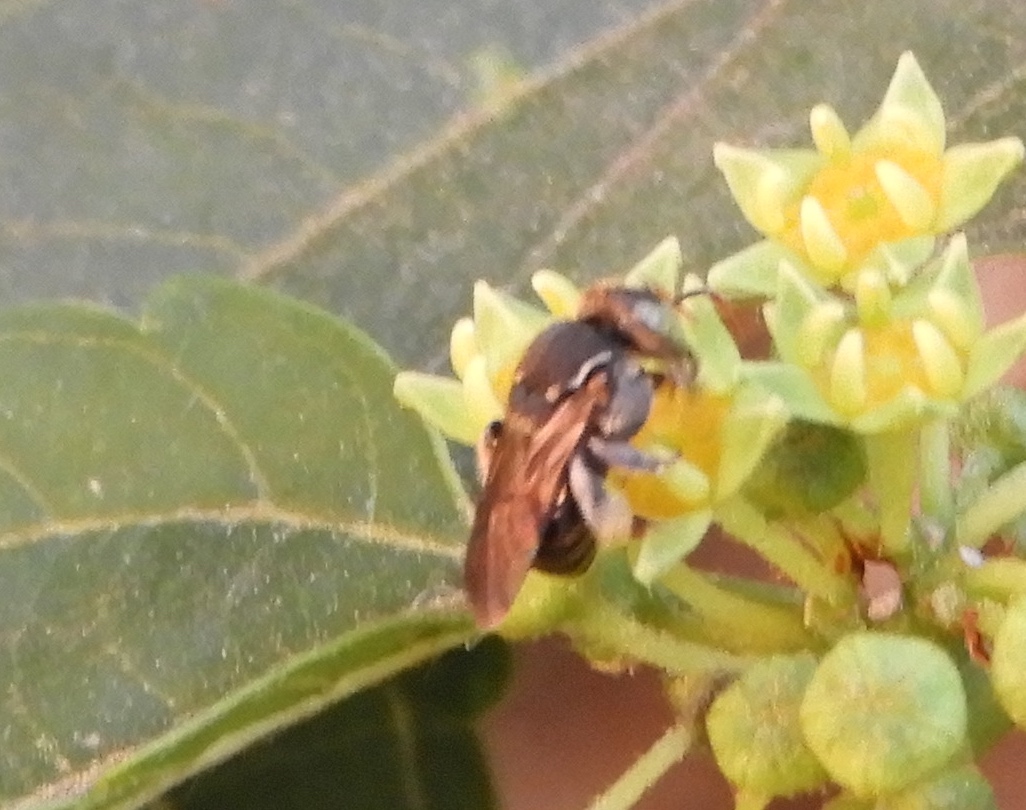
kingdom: Animalia
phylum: Arthropoda
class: Insecta
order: Hymenoptera
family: Apidae
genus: Nannotrigona
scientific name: Nannotrigona perilampoides
